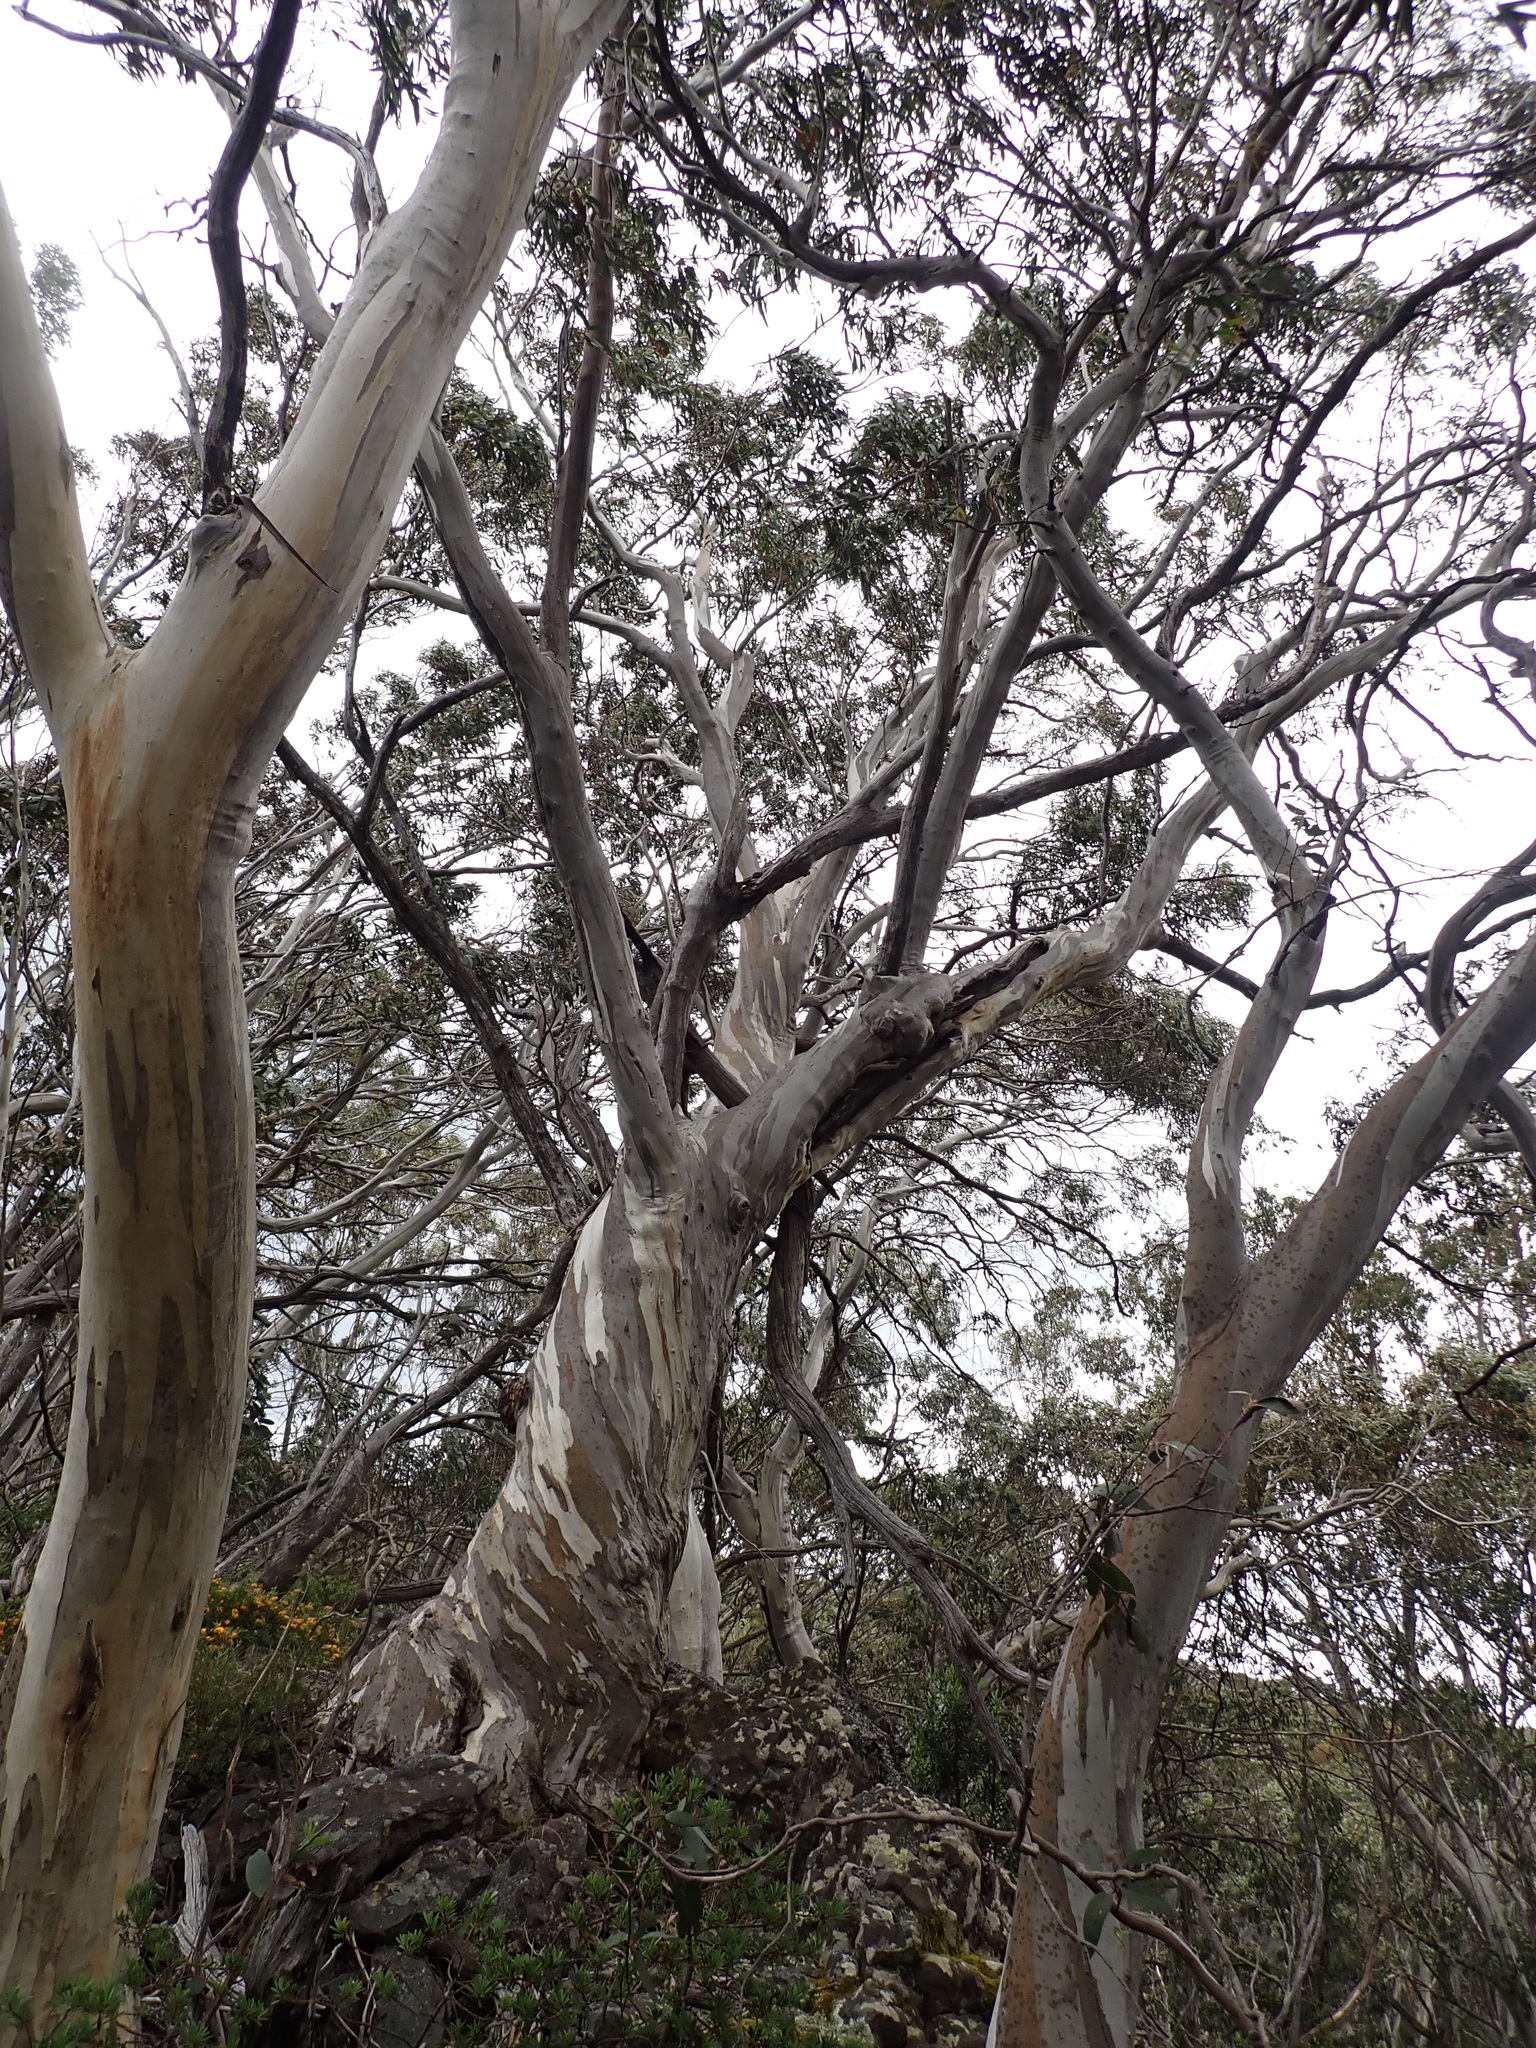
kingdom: Plantae
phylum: Tracheophyta
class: Magnoliopsida
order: Myrtales
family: Myrtaceae
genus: Eucalyptus
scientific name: Eucalyptus pauciflora
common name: Snow gum
